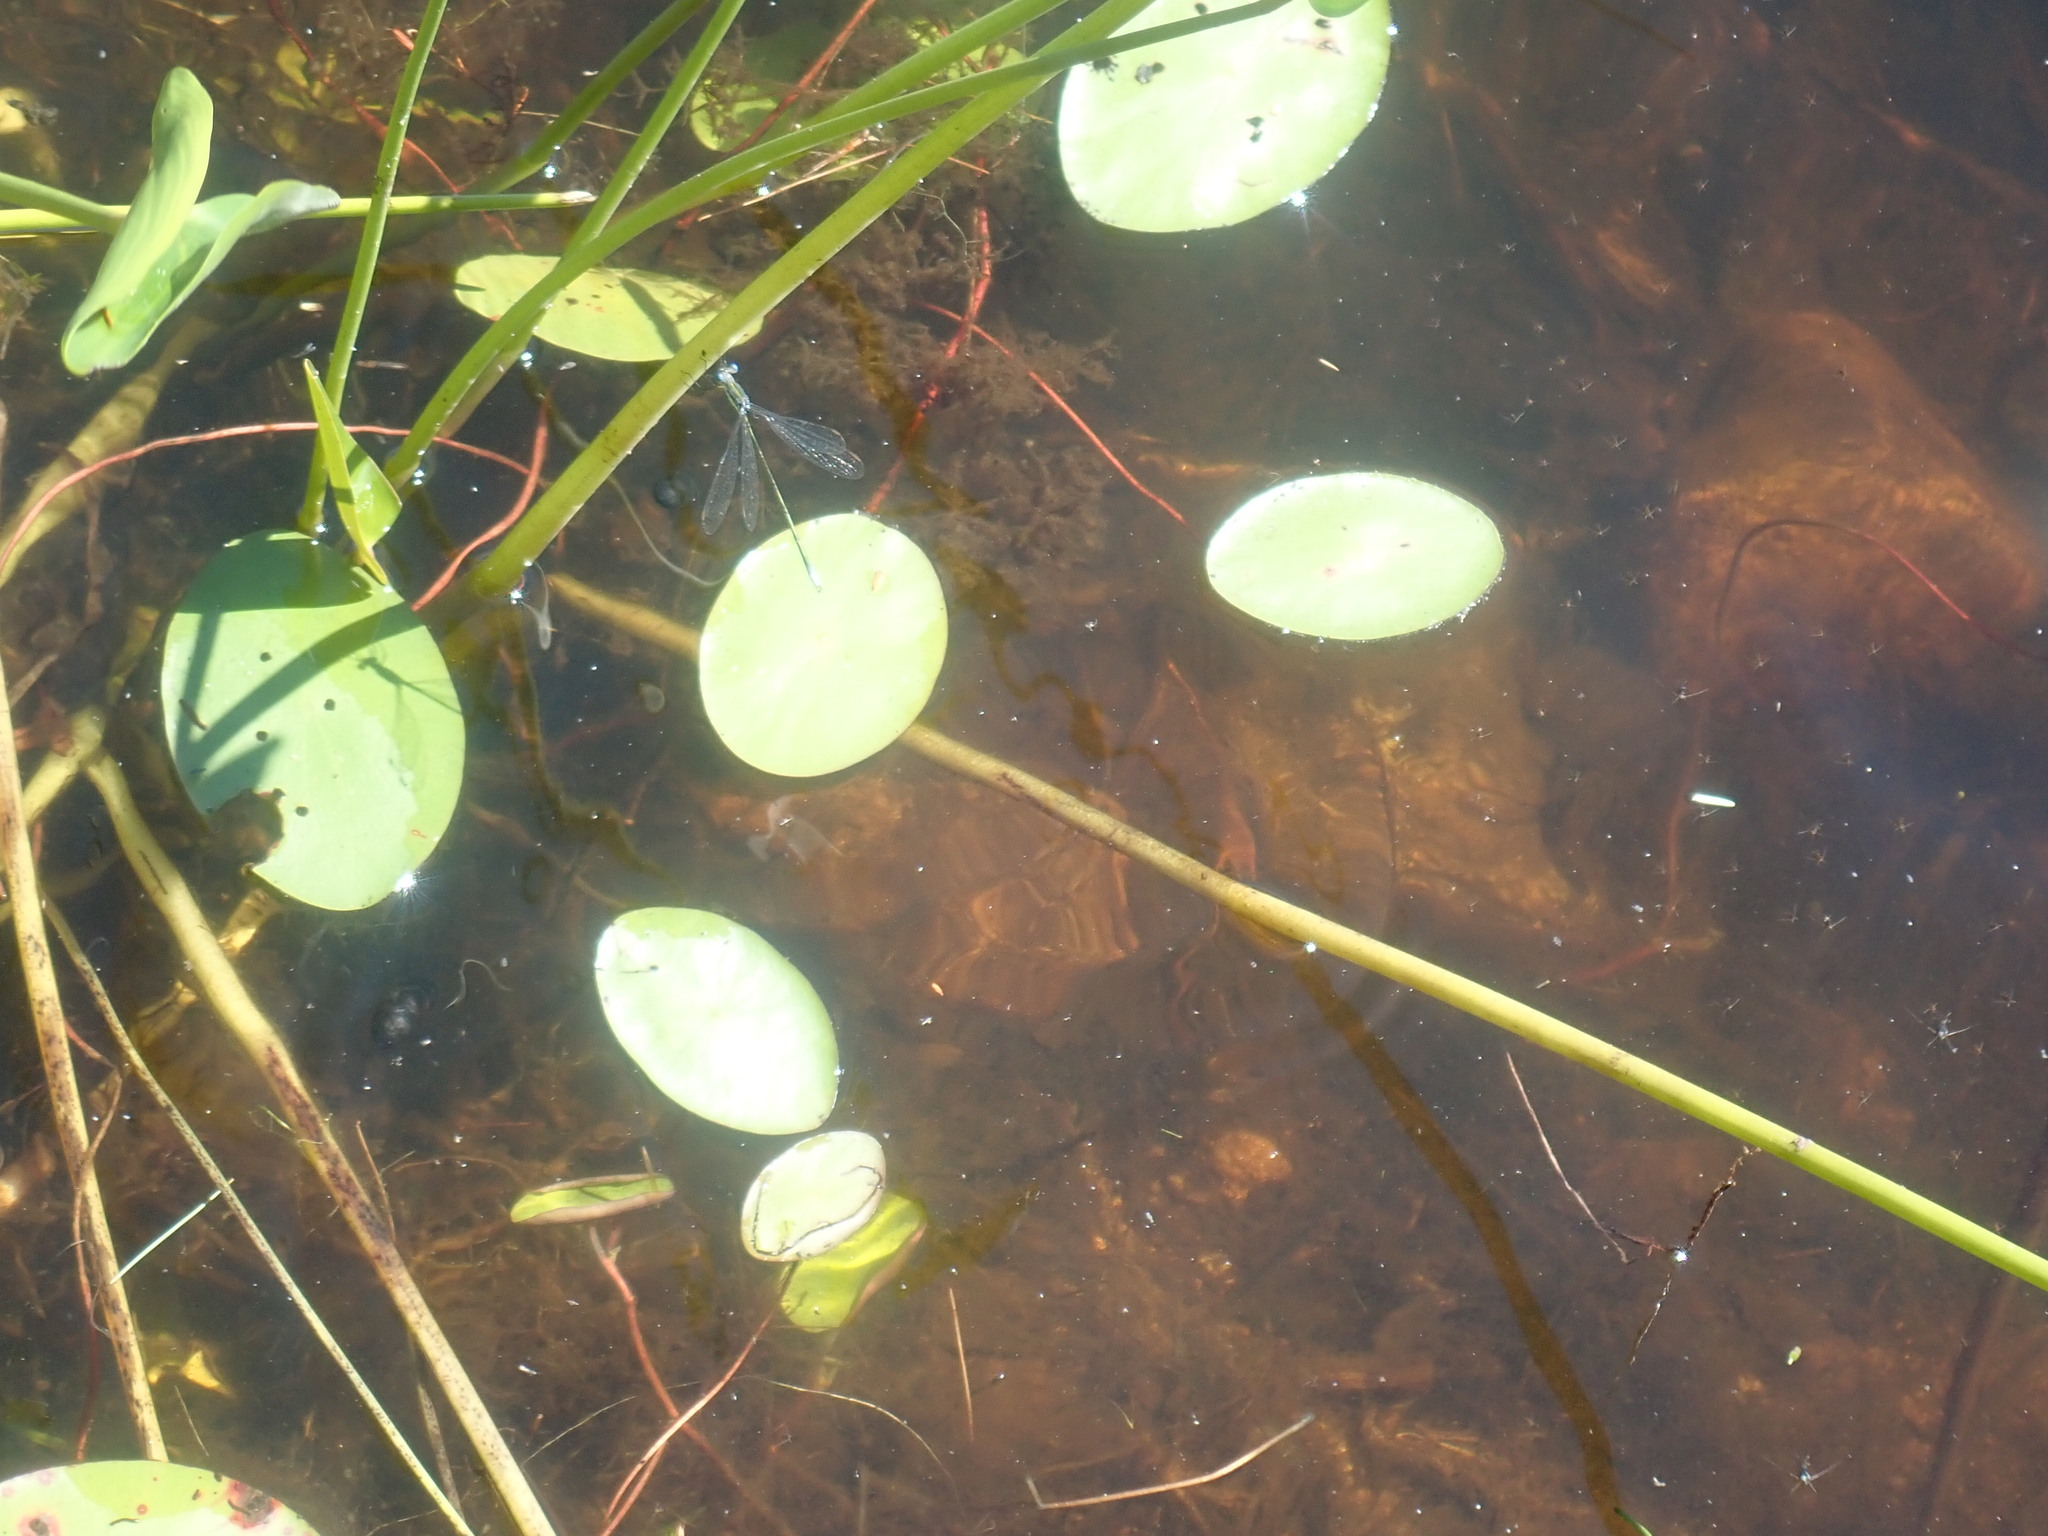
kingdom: Plantae
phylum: Tracheophyta
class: Magnoliopsida
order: Nymphaeales
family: Cabombaceae
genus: Brasenia
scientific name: Brasenia schreberi
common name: Water-shield
